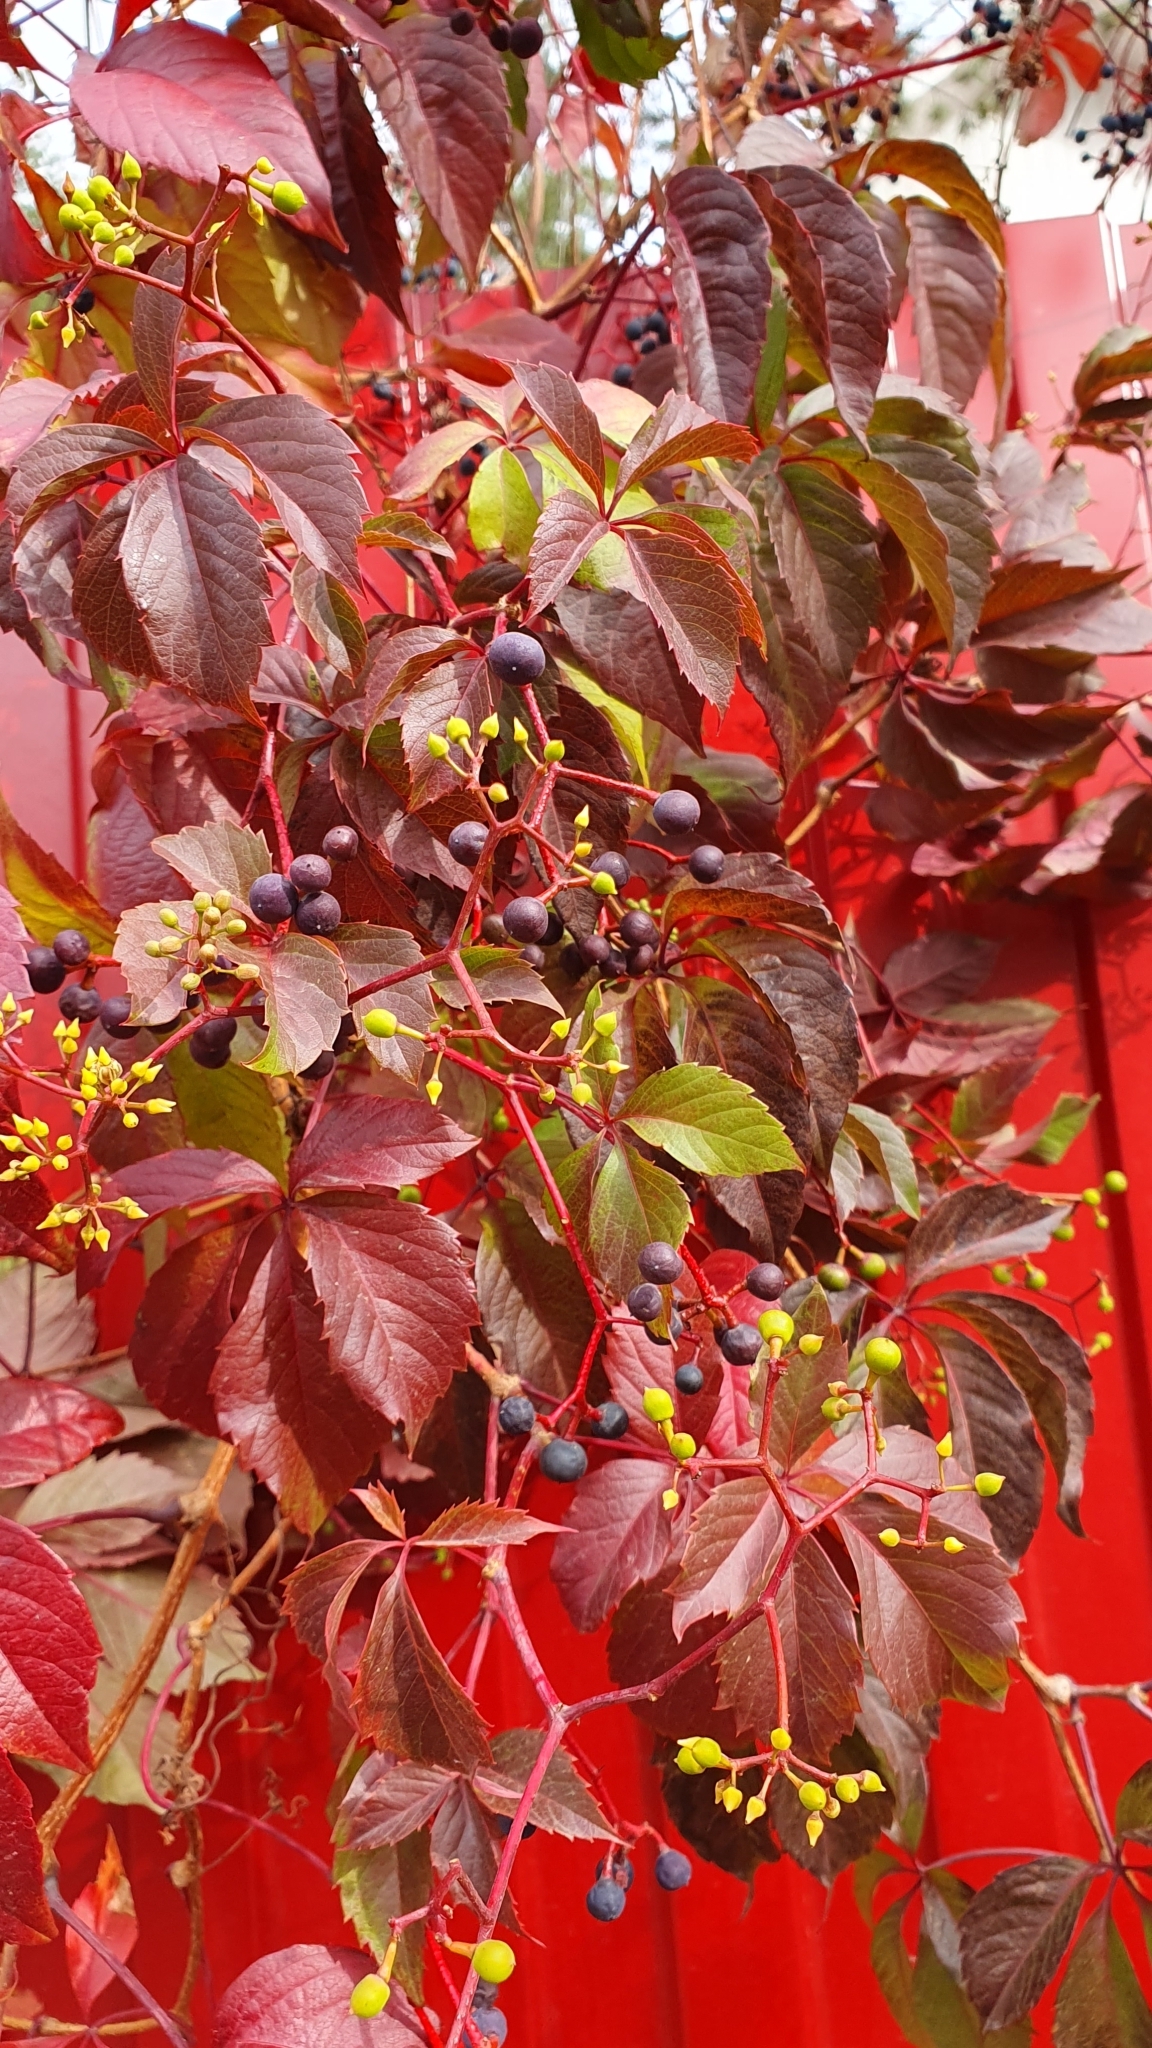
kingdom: Plantae
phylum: Tracheophyta
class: Magnoliopsida
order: Vitales
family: Vitaceae
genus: Parthenocissus
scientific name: Parthenocissus inserta
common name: False virginia-creeper
